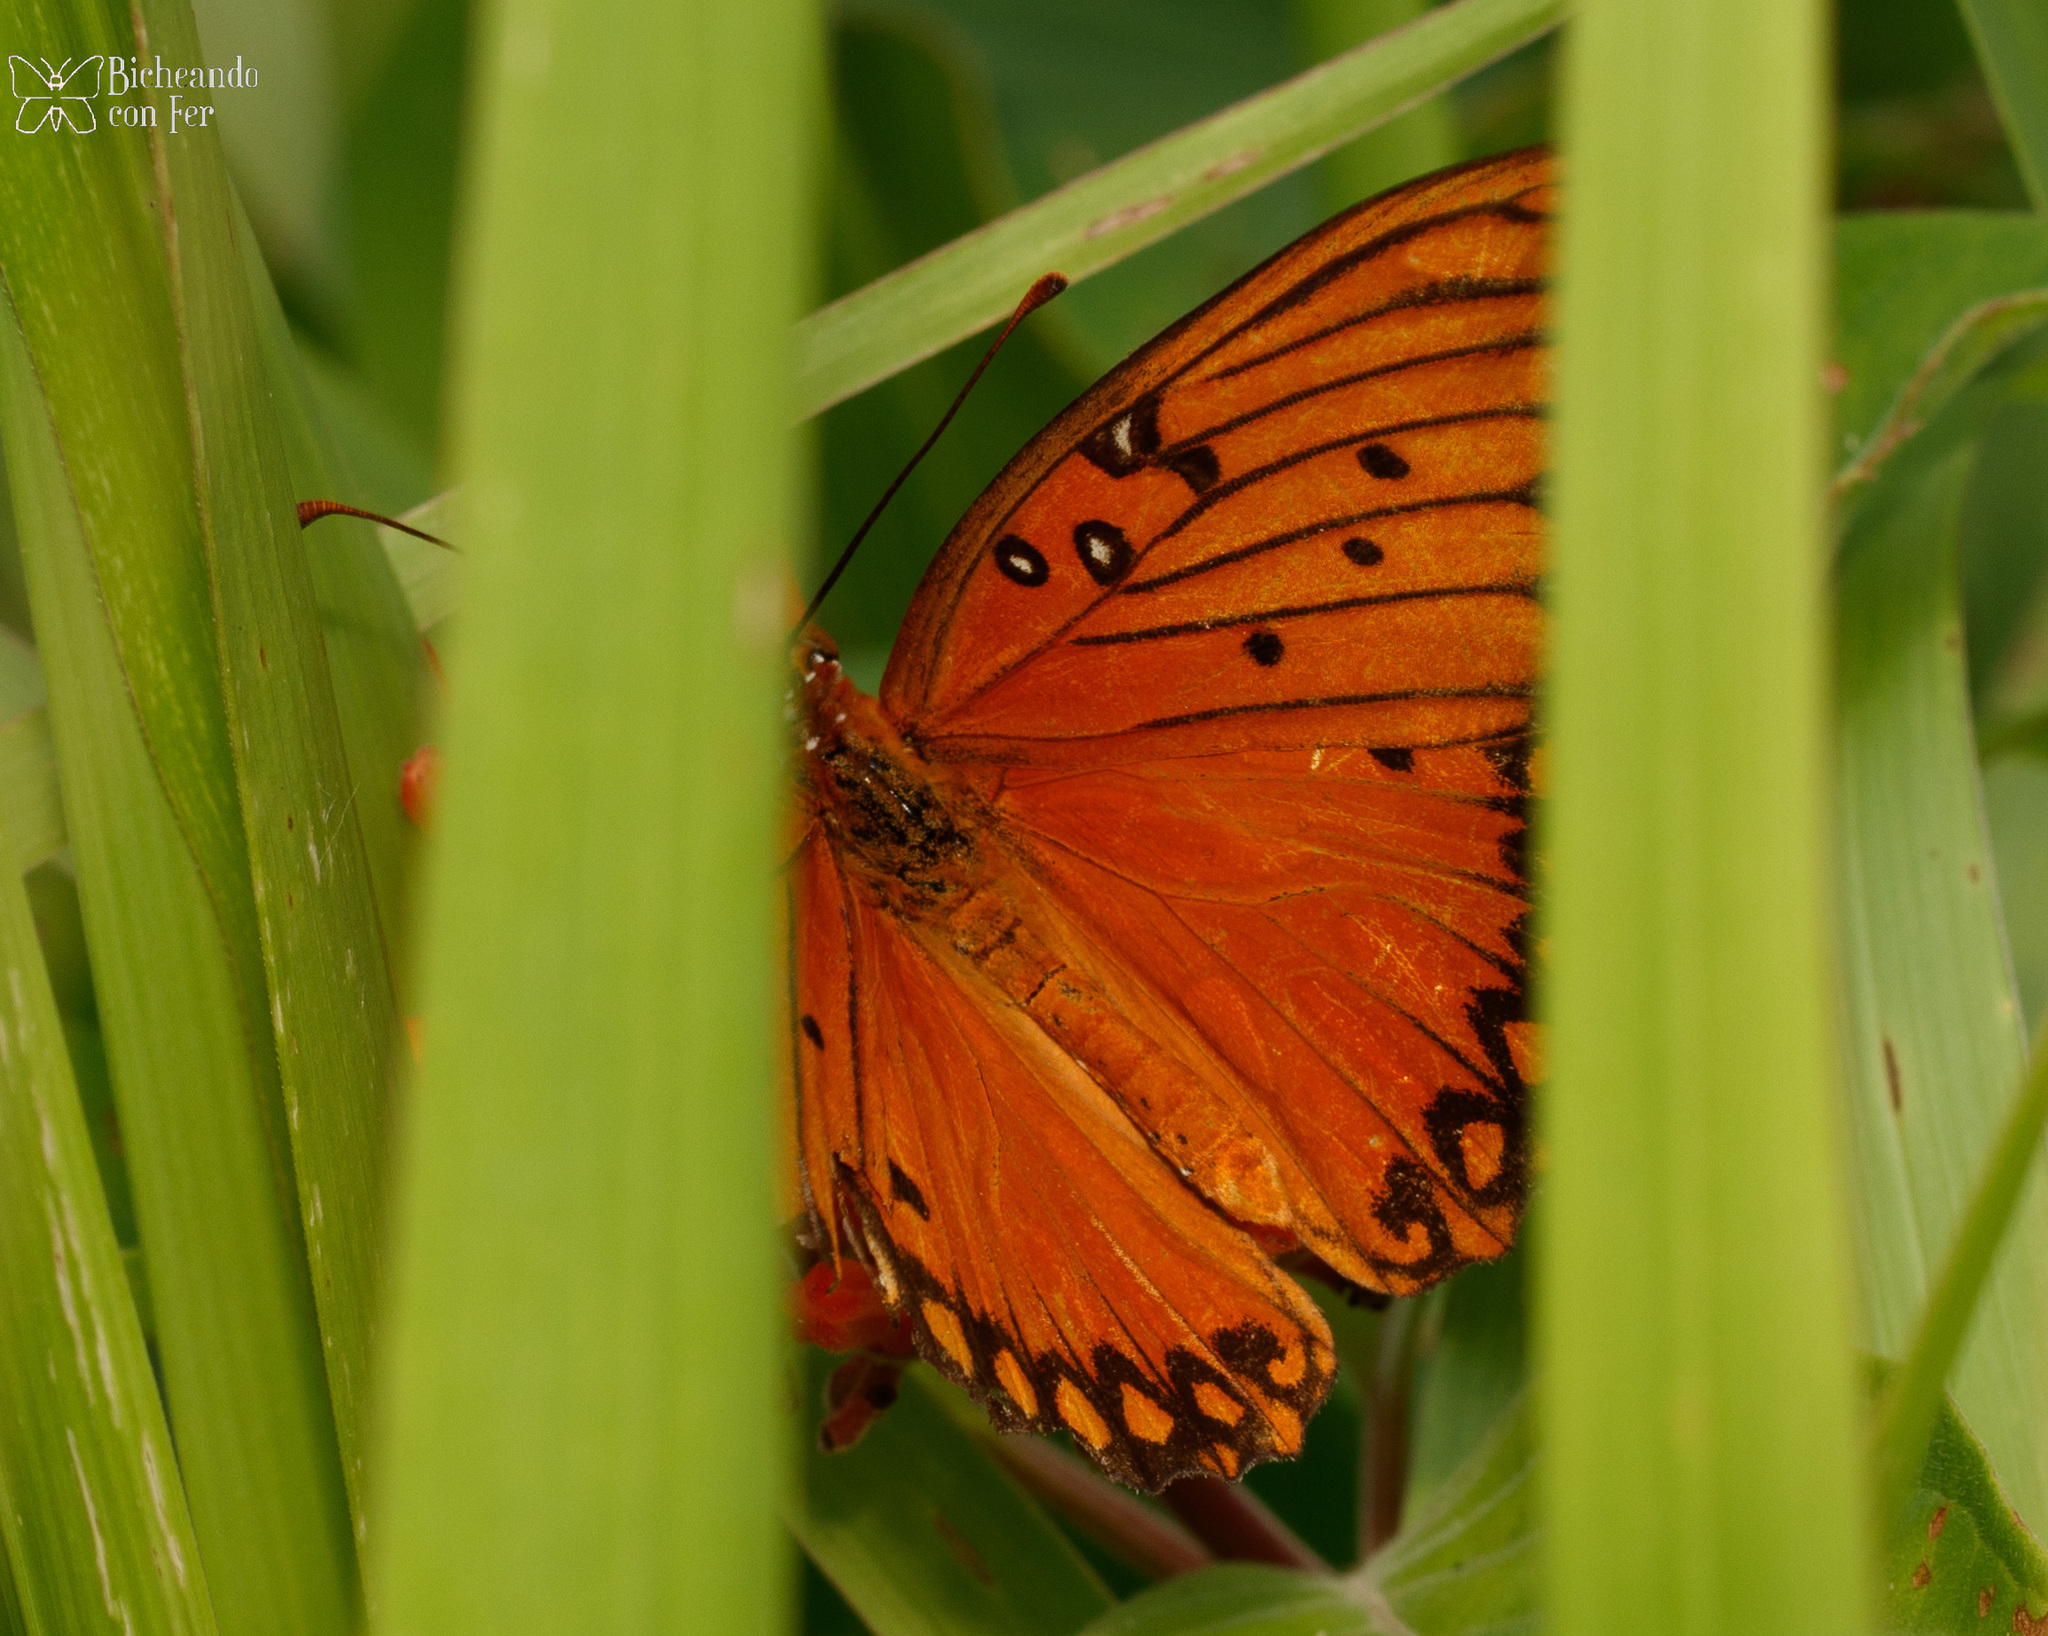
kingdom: Animalia
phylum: Arthropoda
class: Insecta
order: Lepidoptera
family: Nymphalidae
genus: Dione
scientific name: Dione vanillae
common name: Gulf fritillary
